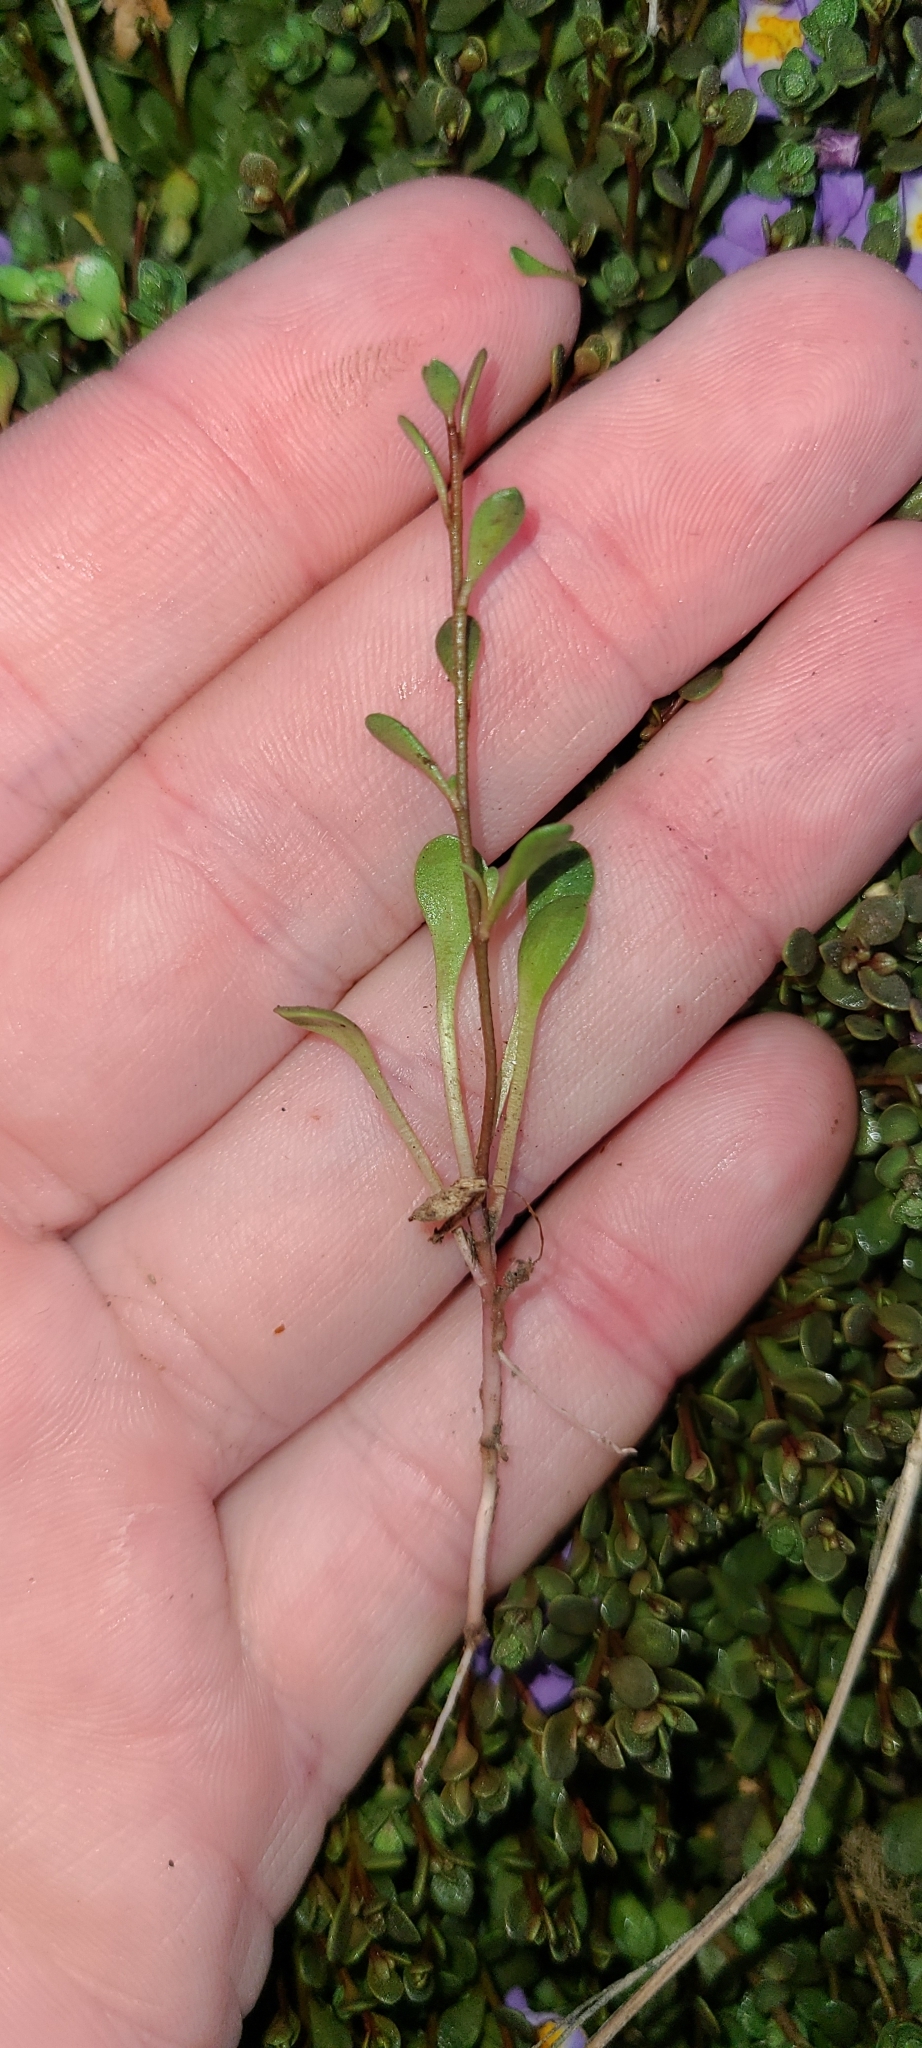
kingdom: Plantae
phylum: Tracheophyta
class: Magnoliopsida
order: Lamiales
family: Phrymaceae
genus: Thyridia
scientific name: Thyridia repens
